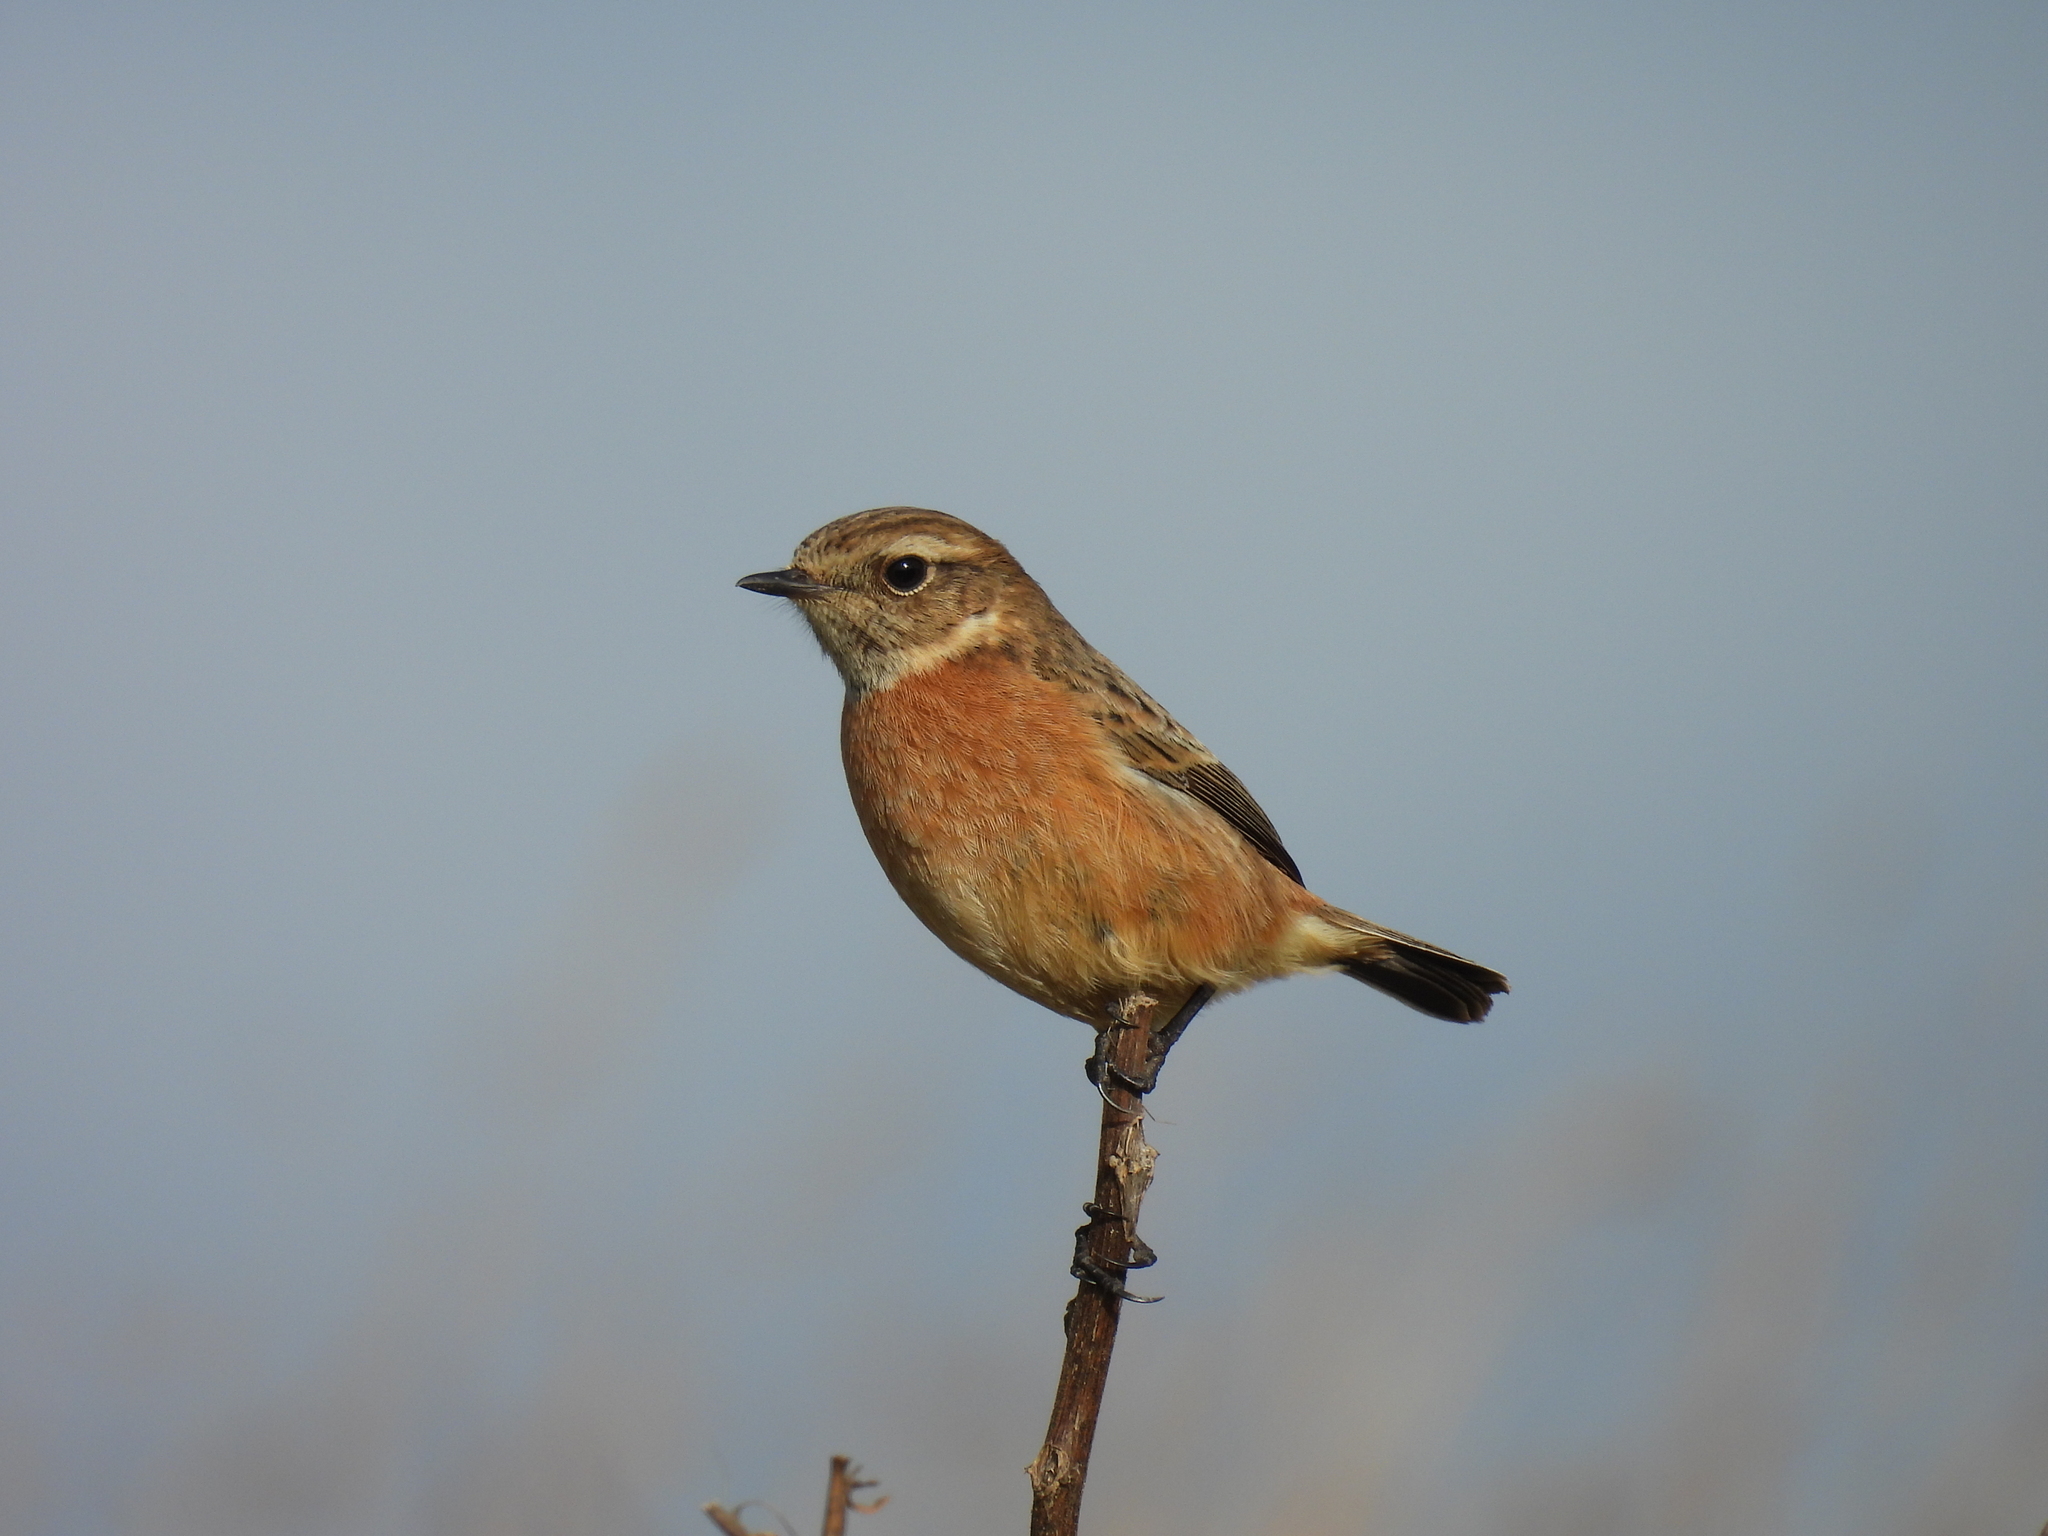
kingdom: Animalia
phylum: Chordata
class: Aves
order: Passeriformes
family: Muscicapidae
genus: Saxicola
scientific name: Saxicola rubicola
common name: European stonechat
